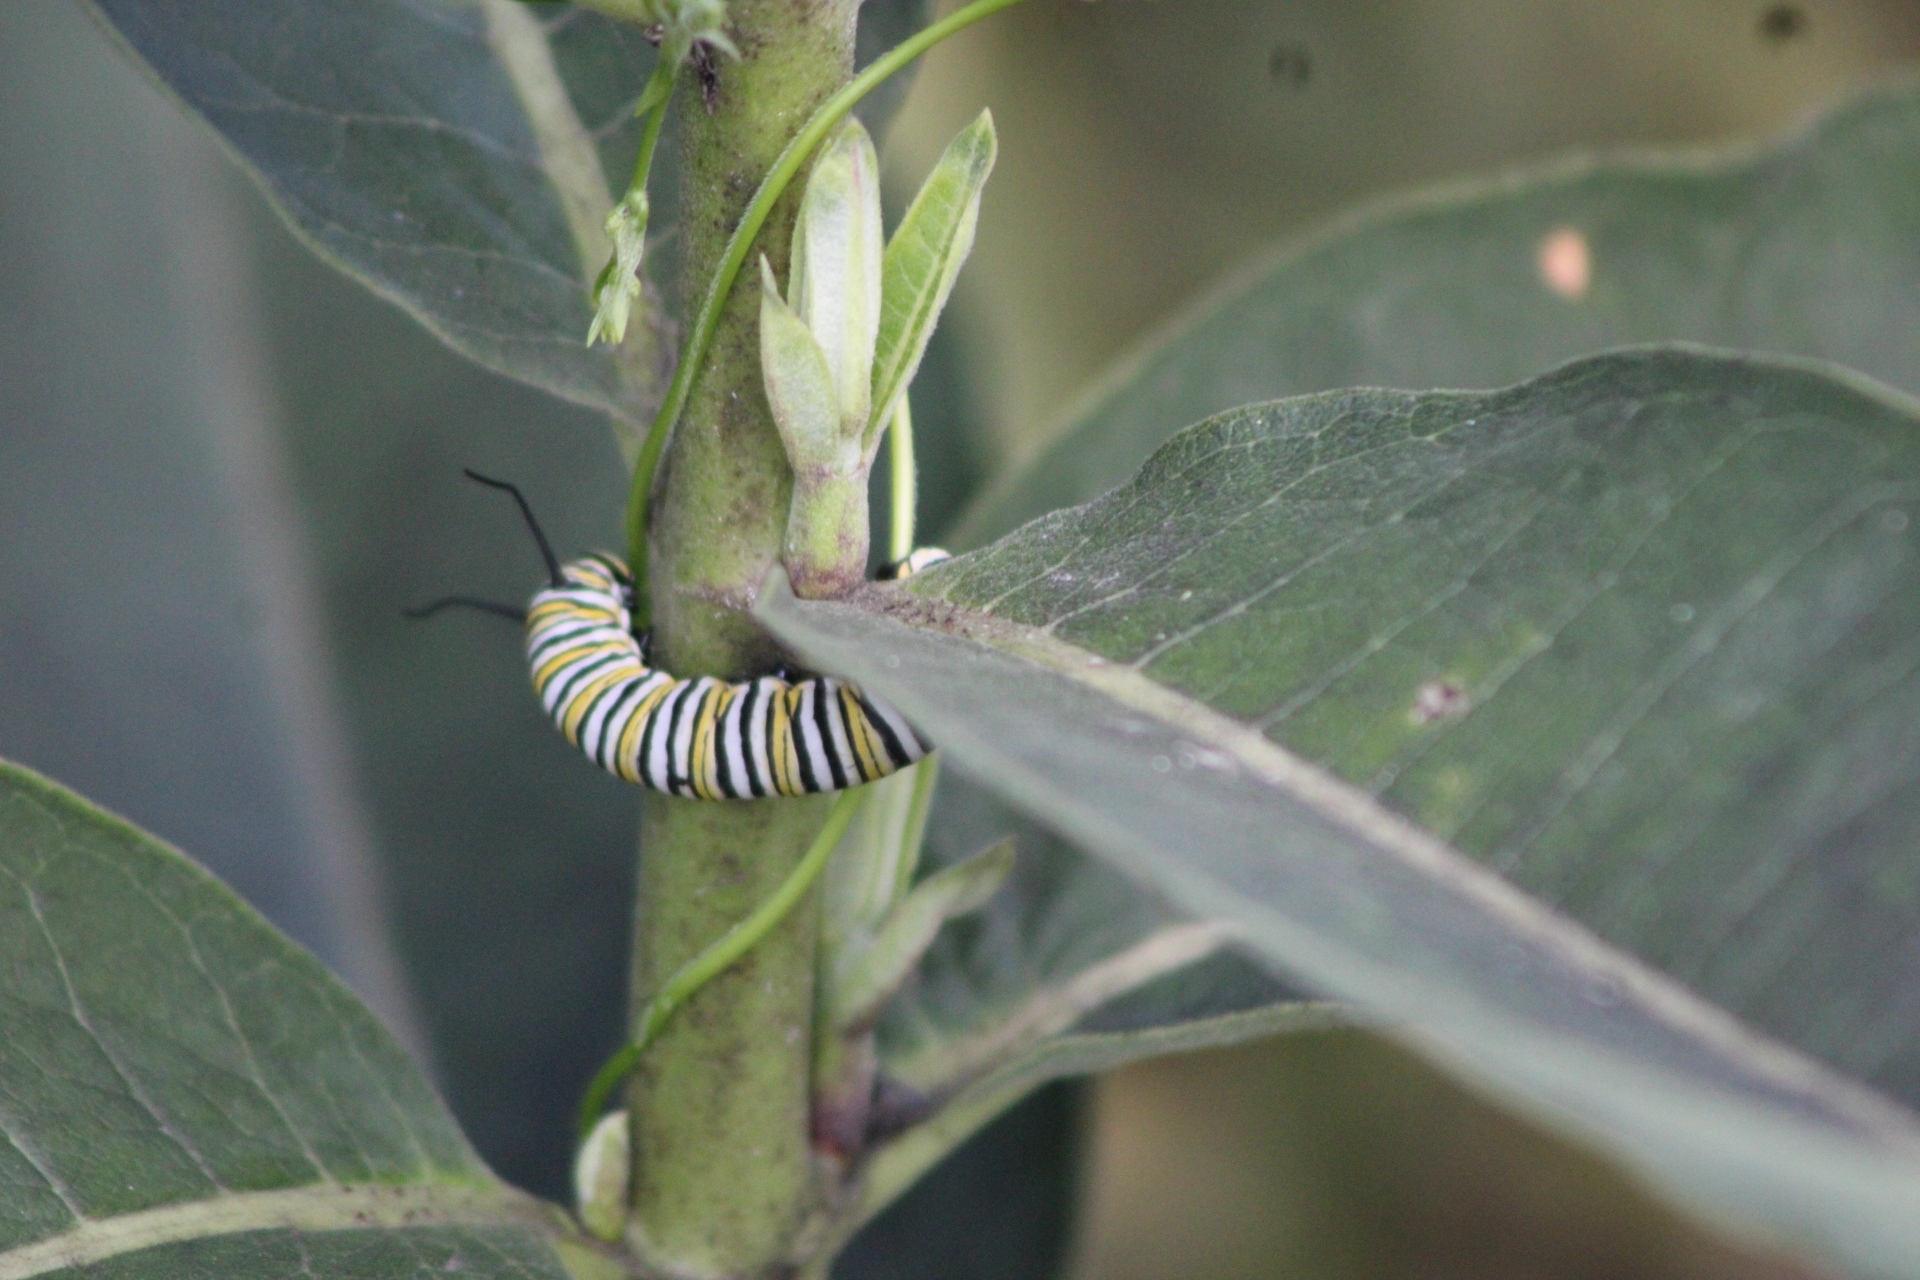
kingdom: Animalia
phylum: Arthropoda
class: Insecta
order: Lepidoptera
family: Nymphalidae
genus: Danaus
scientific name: Danaus plexippus
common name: Monarch
